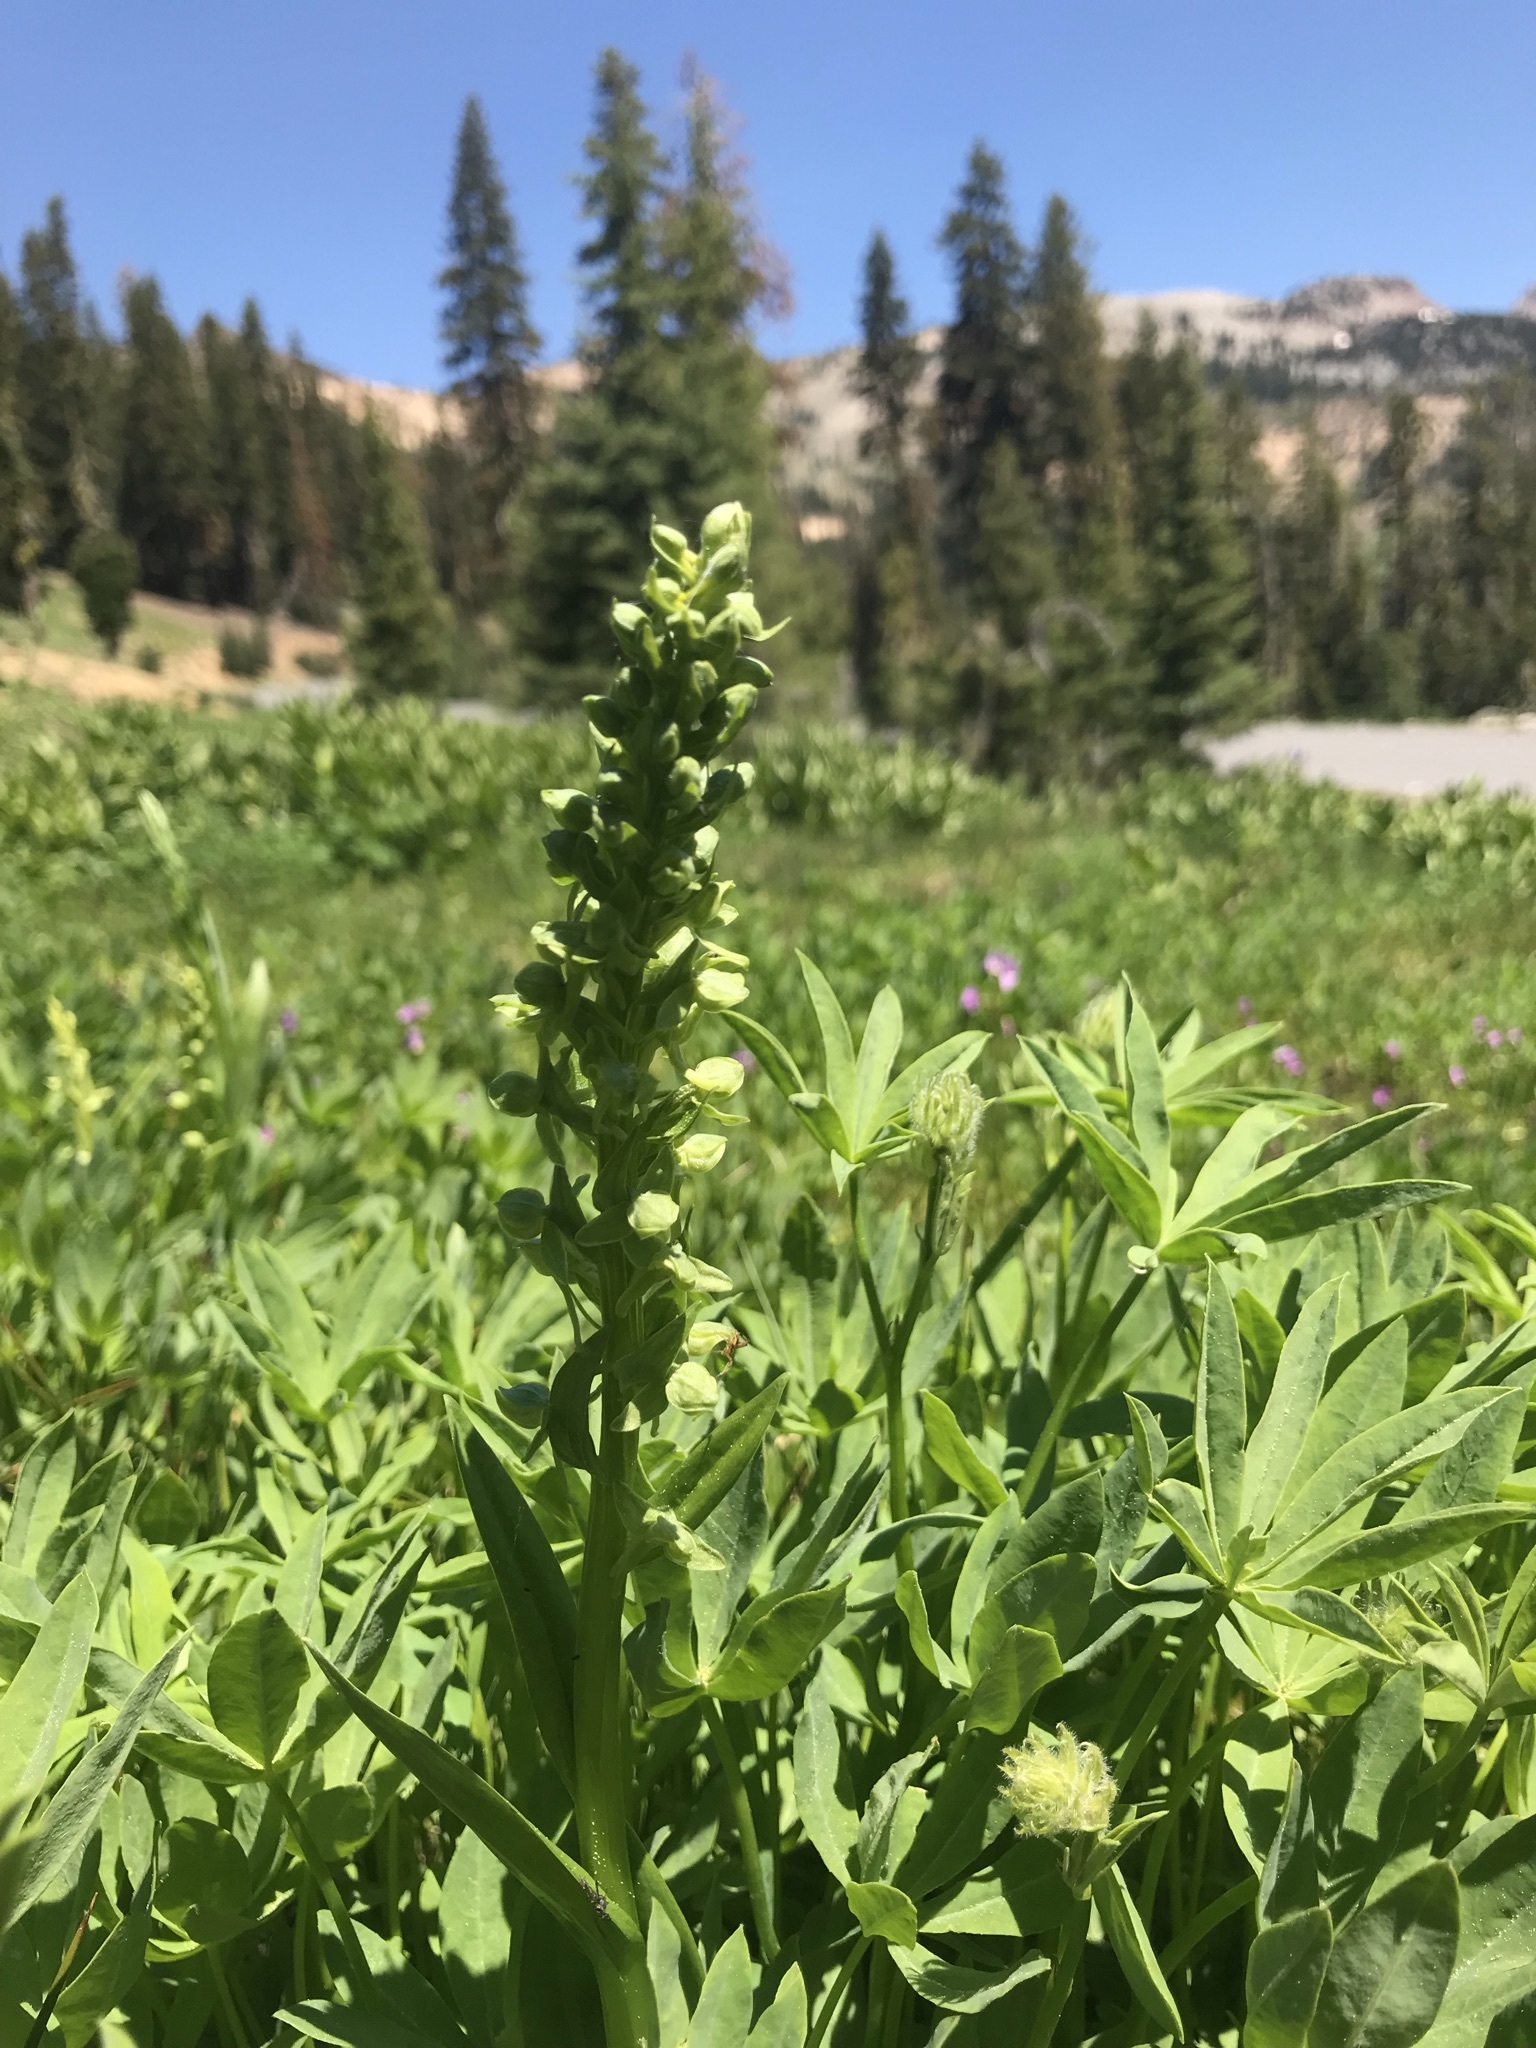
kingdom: Plantae
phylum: Tracheophyta
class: Liliopsida
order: Asparagales
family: Orchidaceae
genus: Platanthera
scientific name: Platanthera sparsiflora
